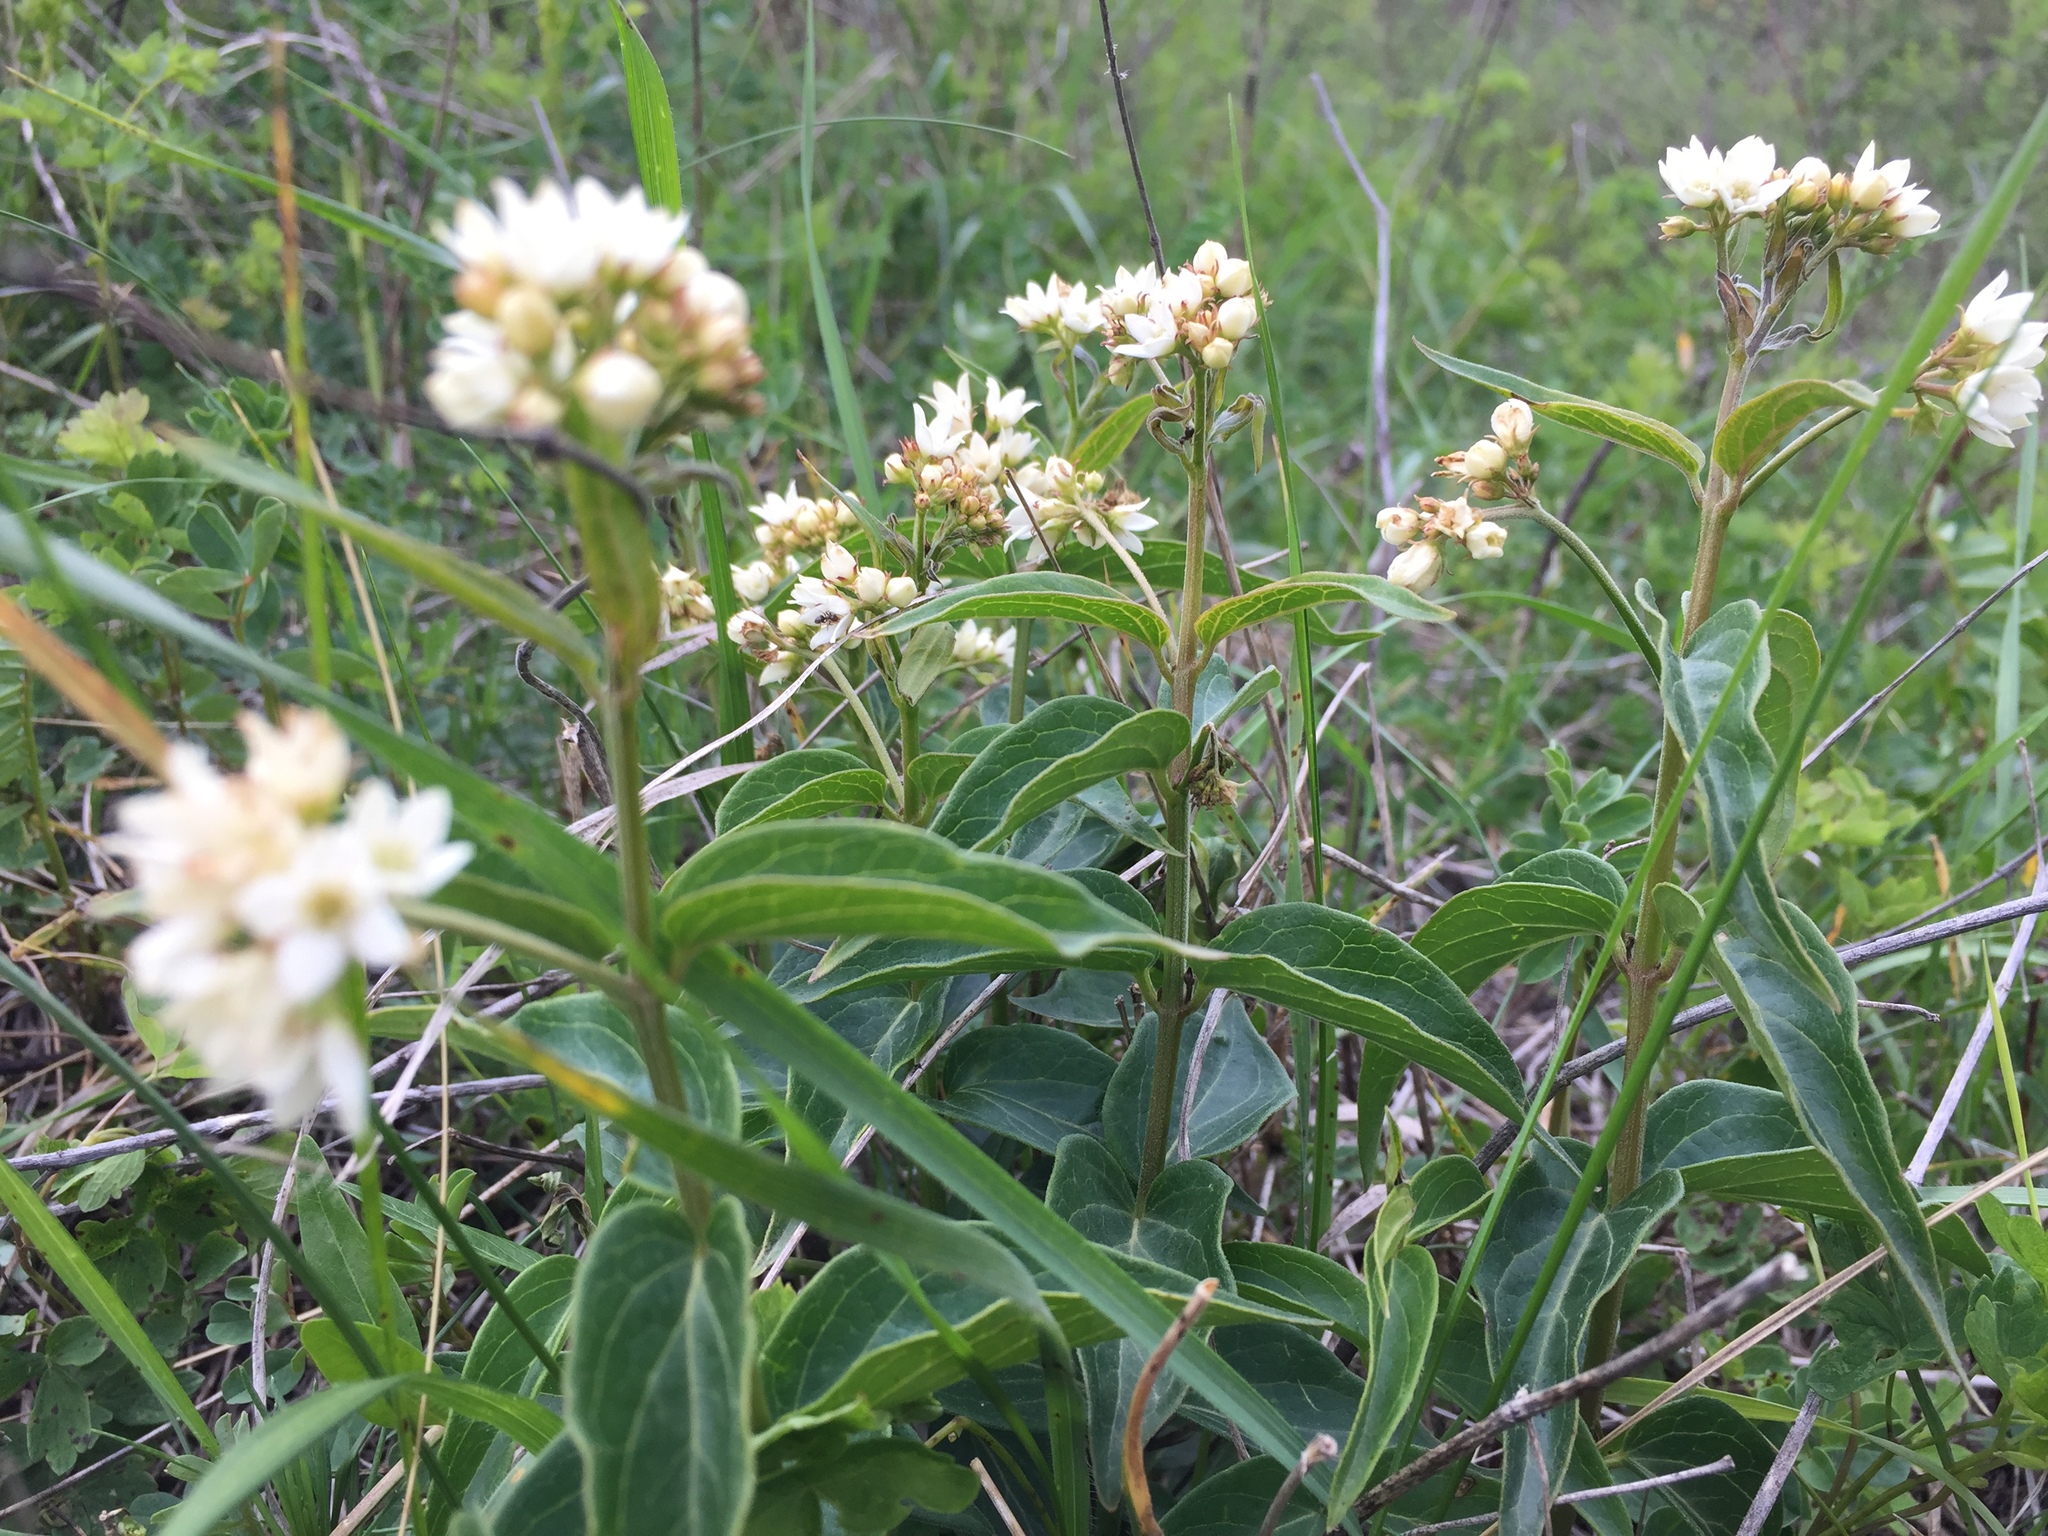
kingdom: Plantae
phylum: Tracheophyta
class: Magnoliopsida
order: Gentianales
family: Apocynaceae
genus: Vincetoxicum
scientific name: Vincetoxicum hirundinaria
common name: White swallowwort
